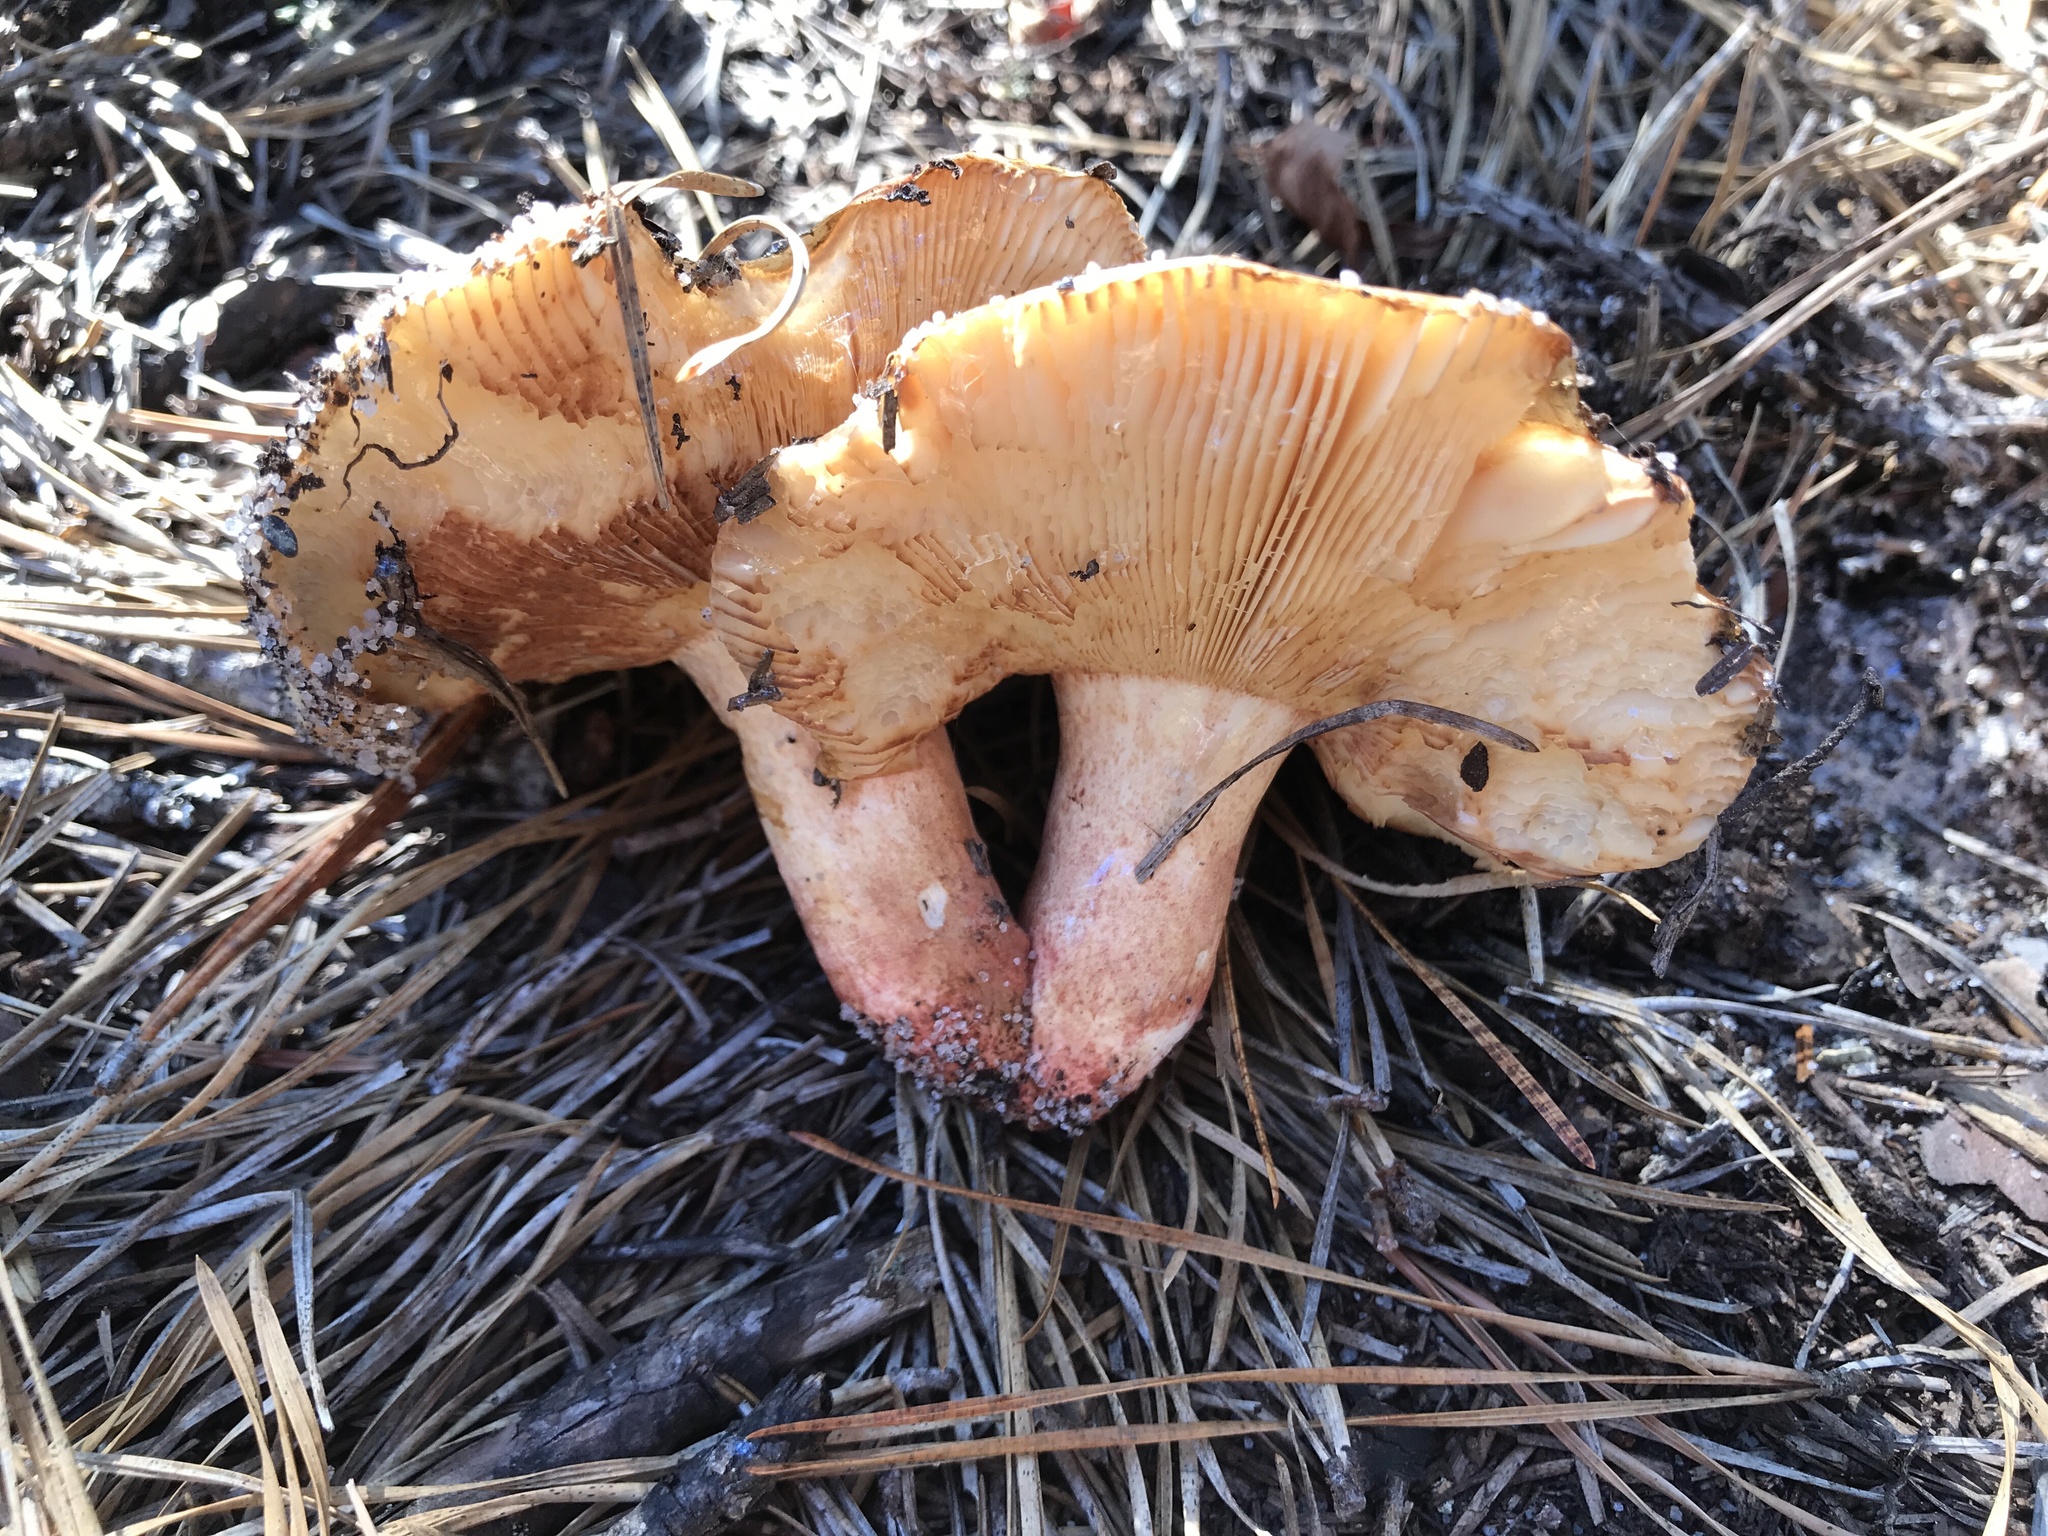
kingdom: Fungi
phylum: Basidiomycota
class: Agaricomycetes
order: Russulales
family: Russulaceae
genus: Russula
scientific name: Russula ventricosipes
